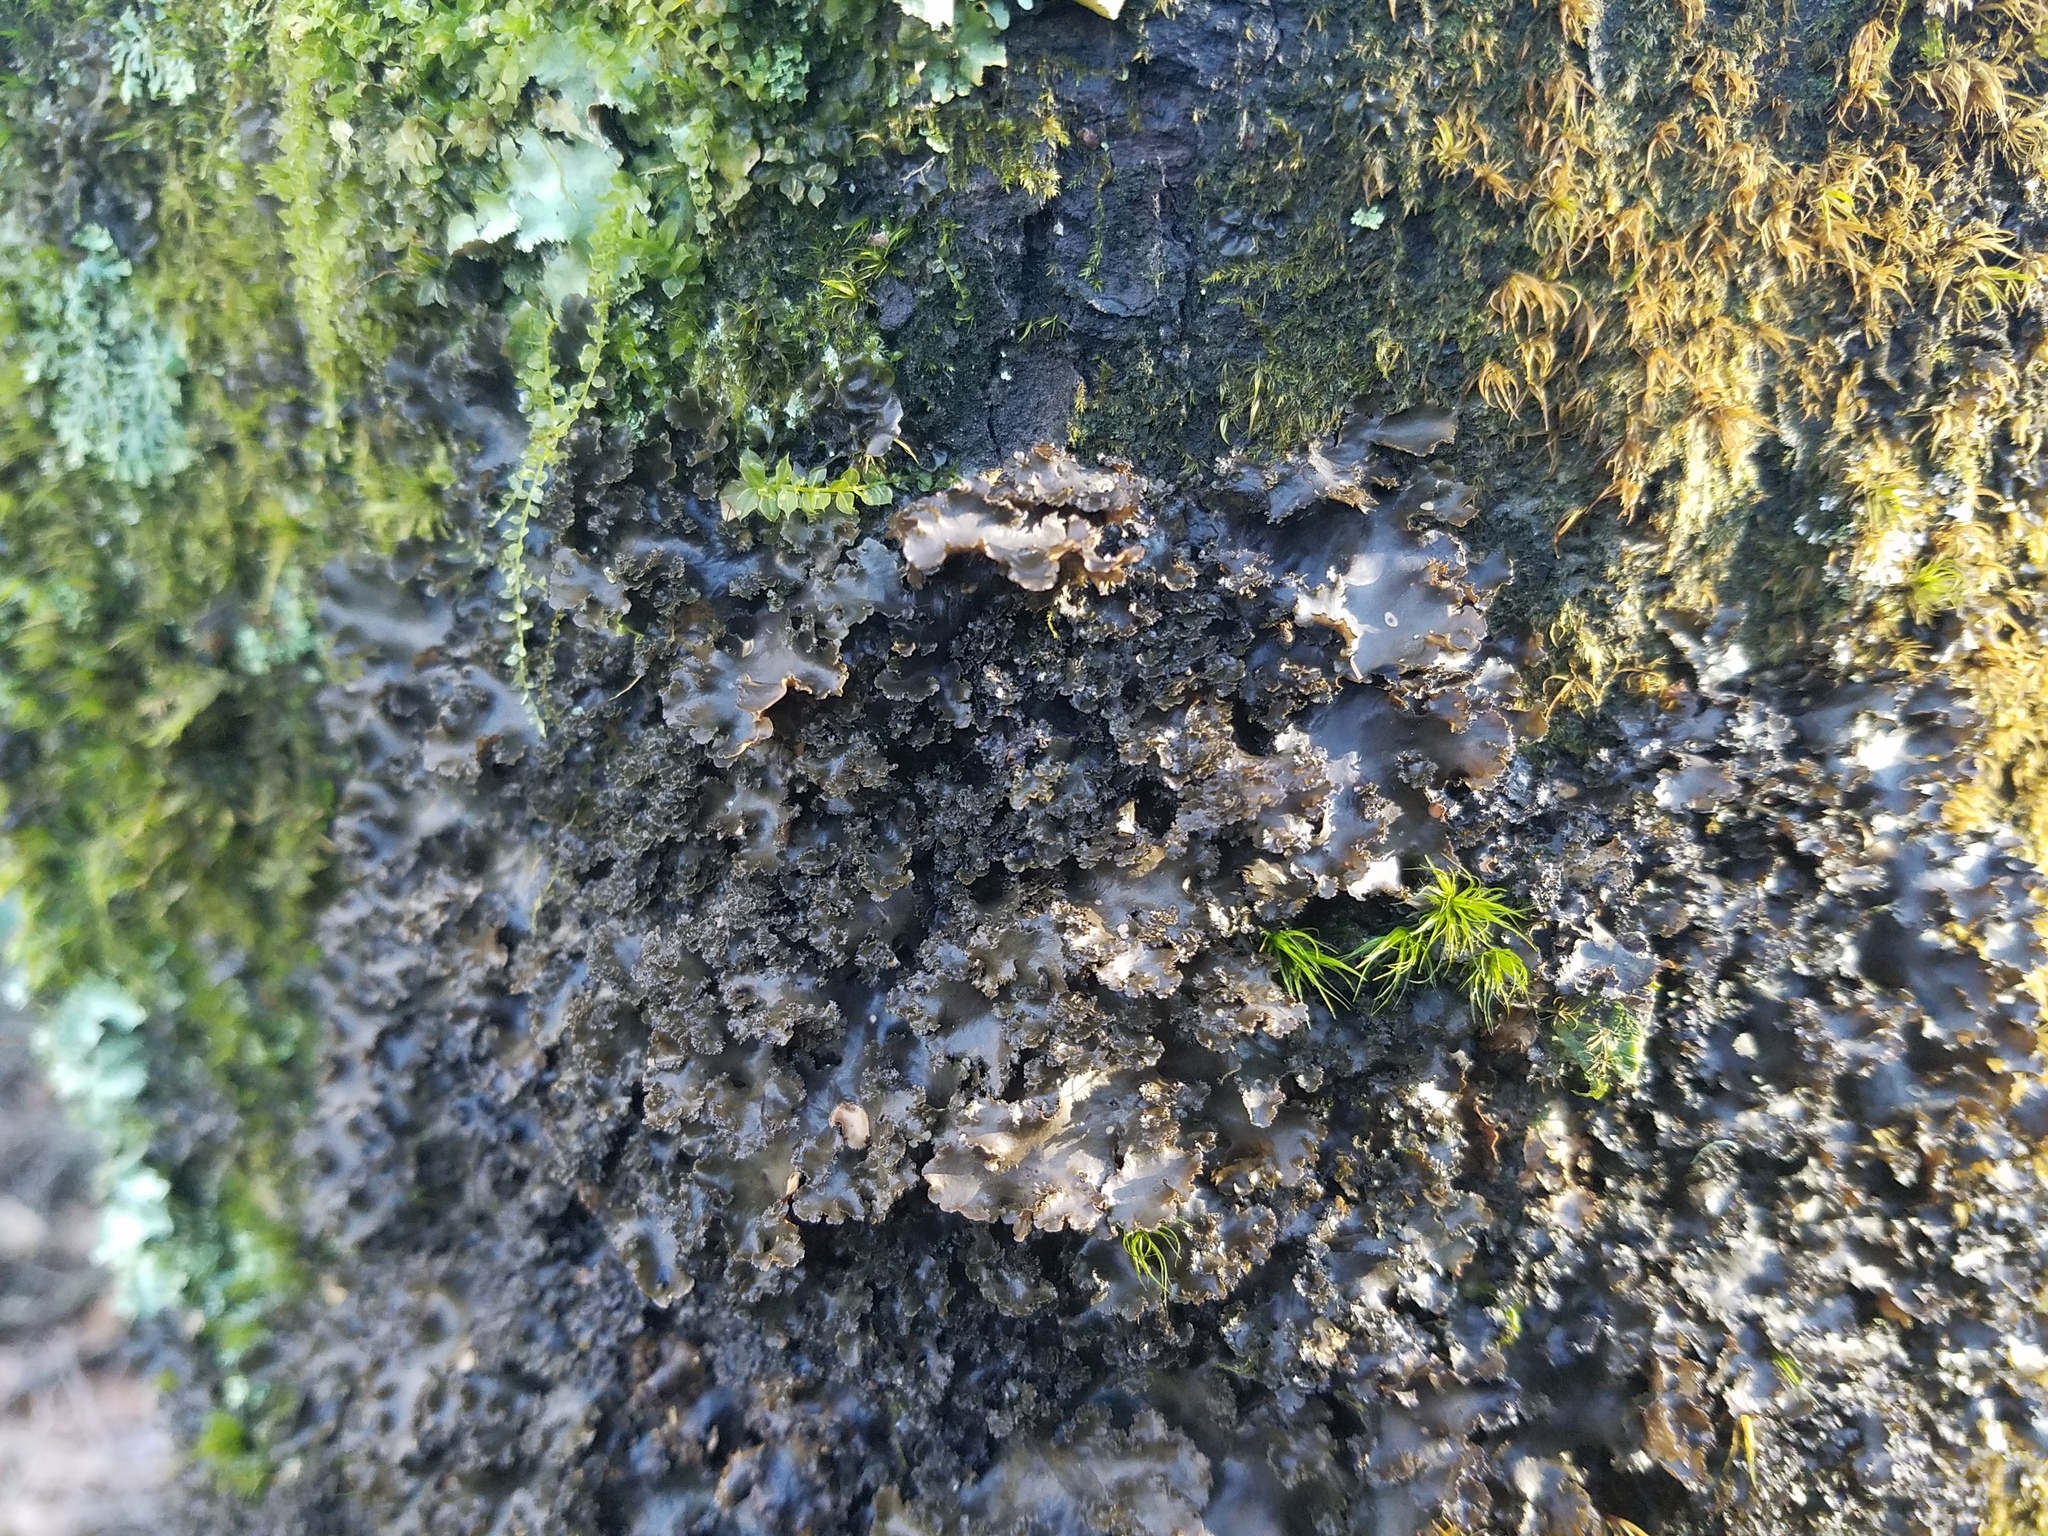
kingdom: Fungi
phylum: Ascomycota
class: Lecanoromycetes
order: Peltigerales
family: Lobariaceae
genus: Sticta
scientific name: Sticta fragilinata
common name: Tammy's pumpkin pails
